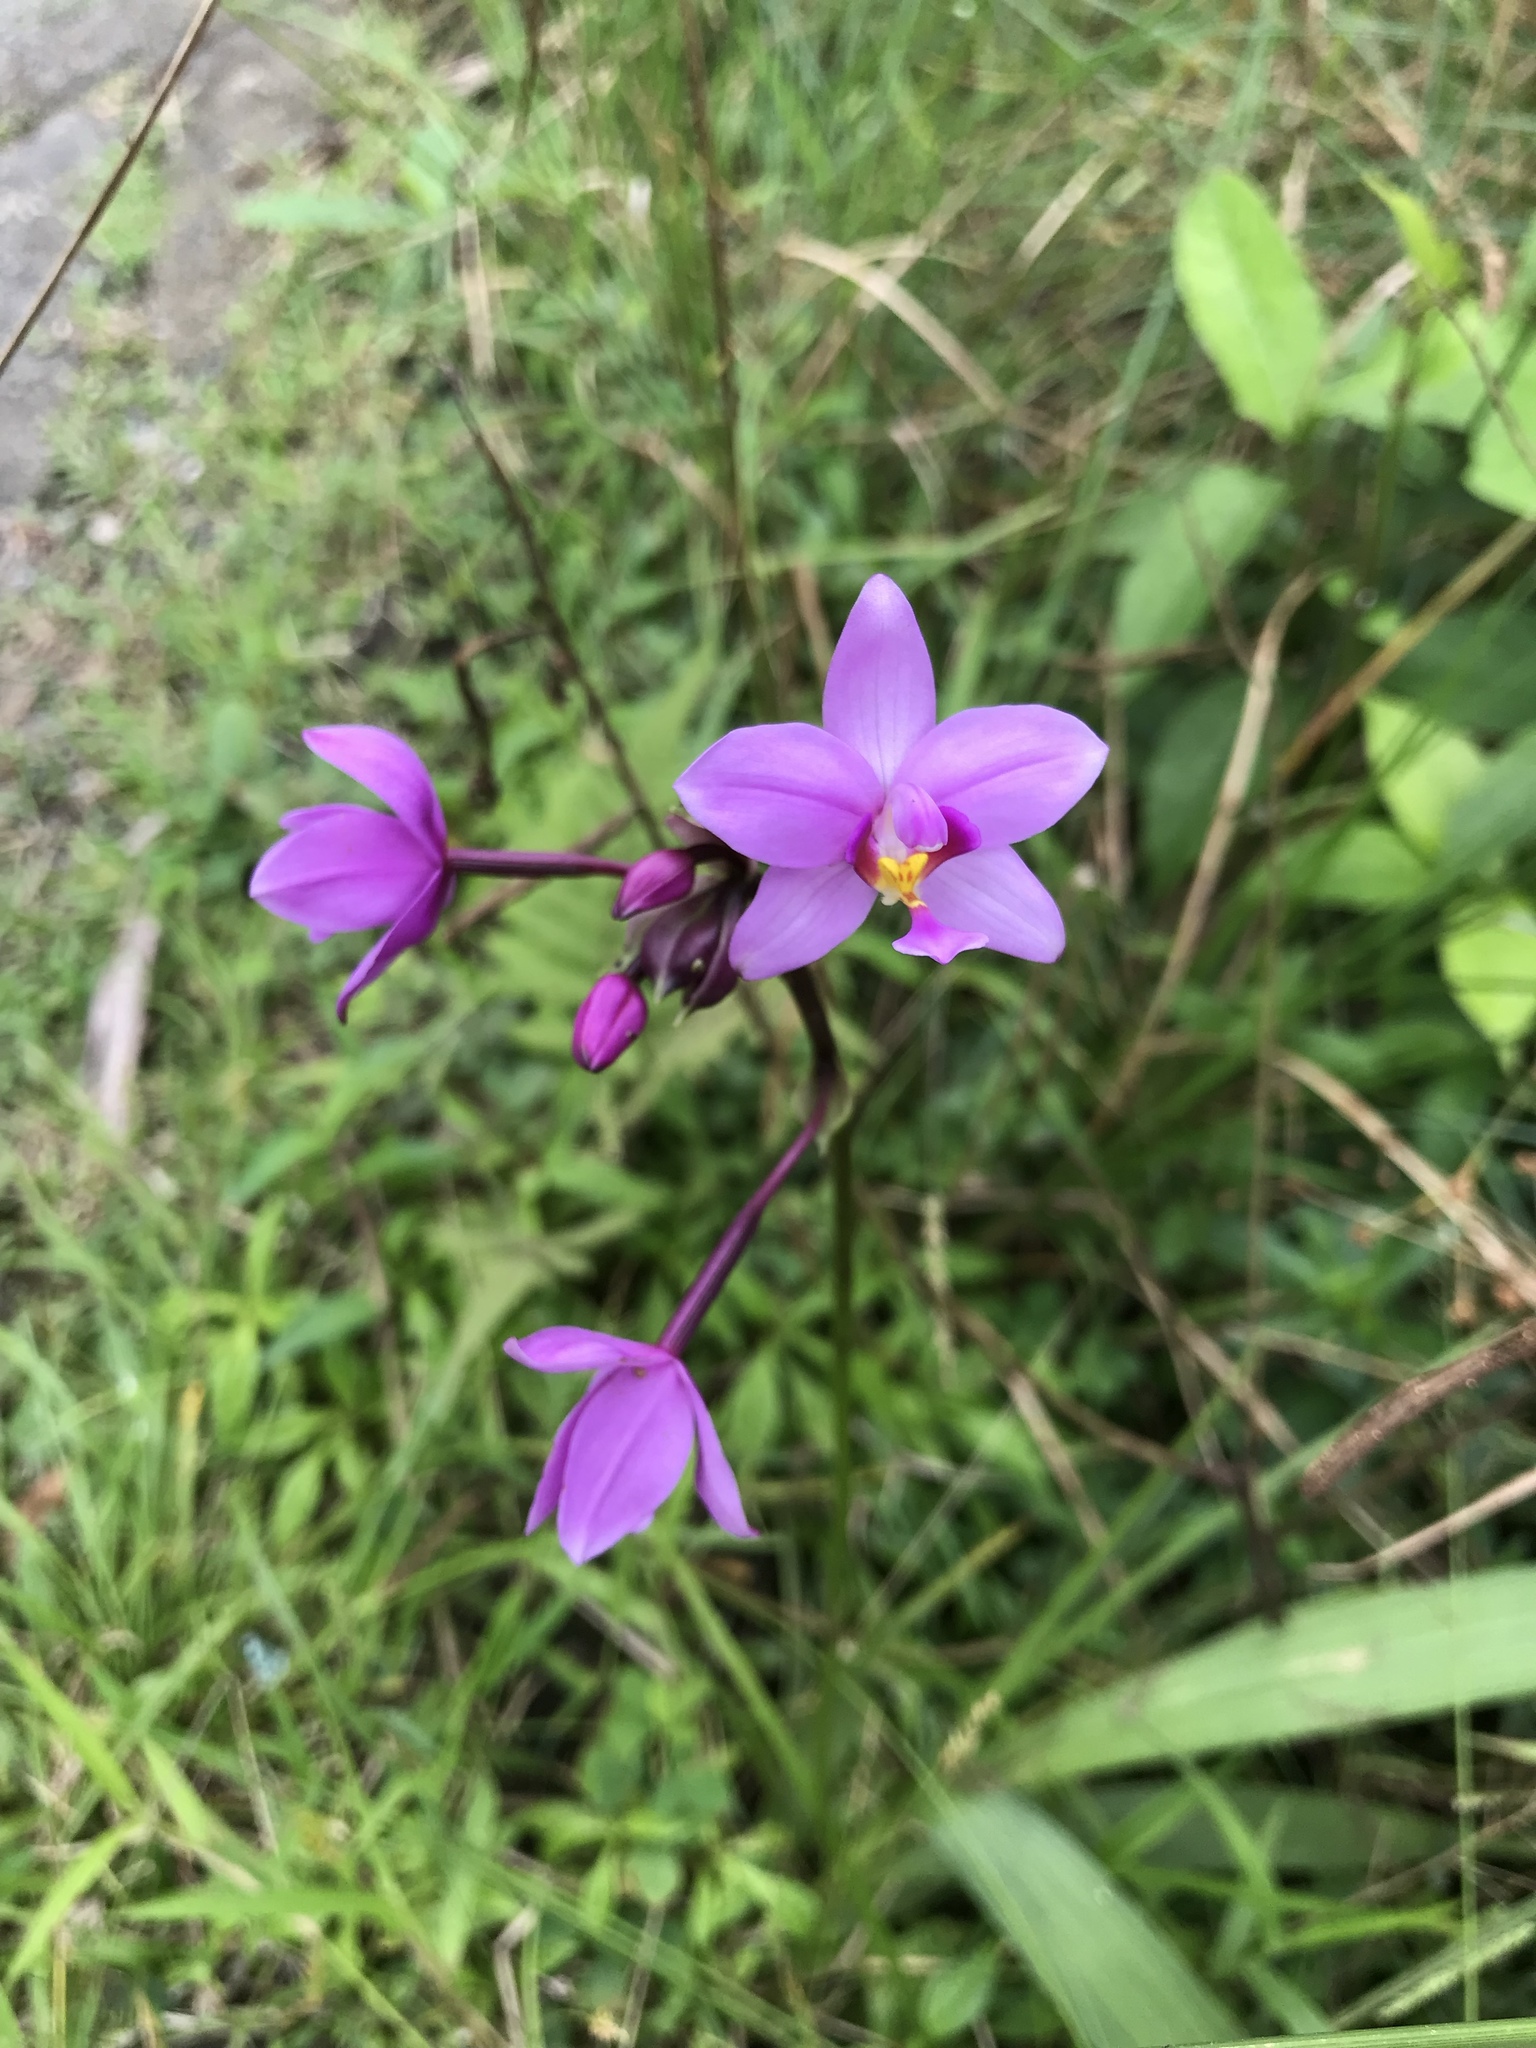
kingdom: Plantae
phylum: Tracheophyta
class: Liliopsida
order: Asparagales
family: Orchidaceae
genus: Spathoglottis
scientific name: Spathoglottis plicata
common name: Philippine ground orchid
